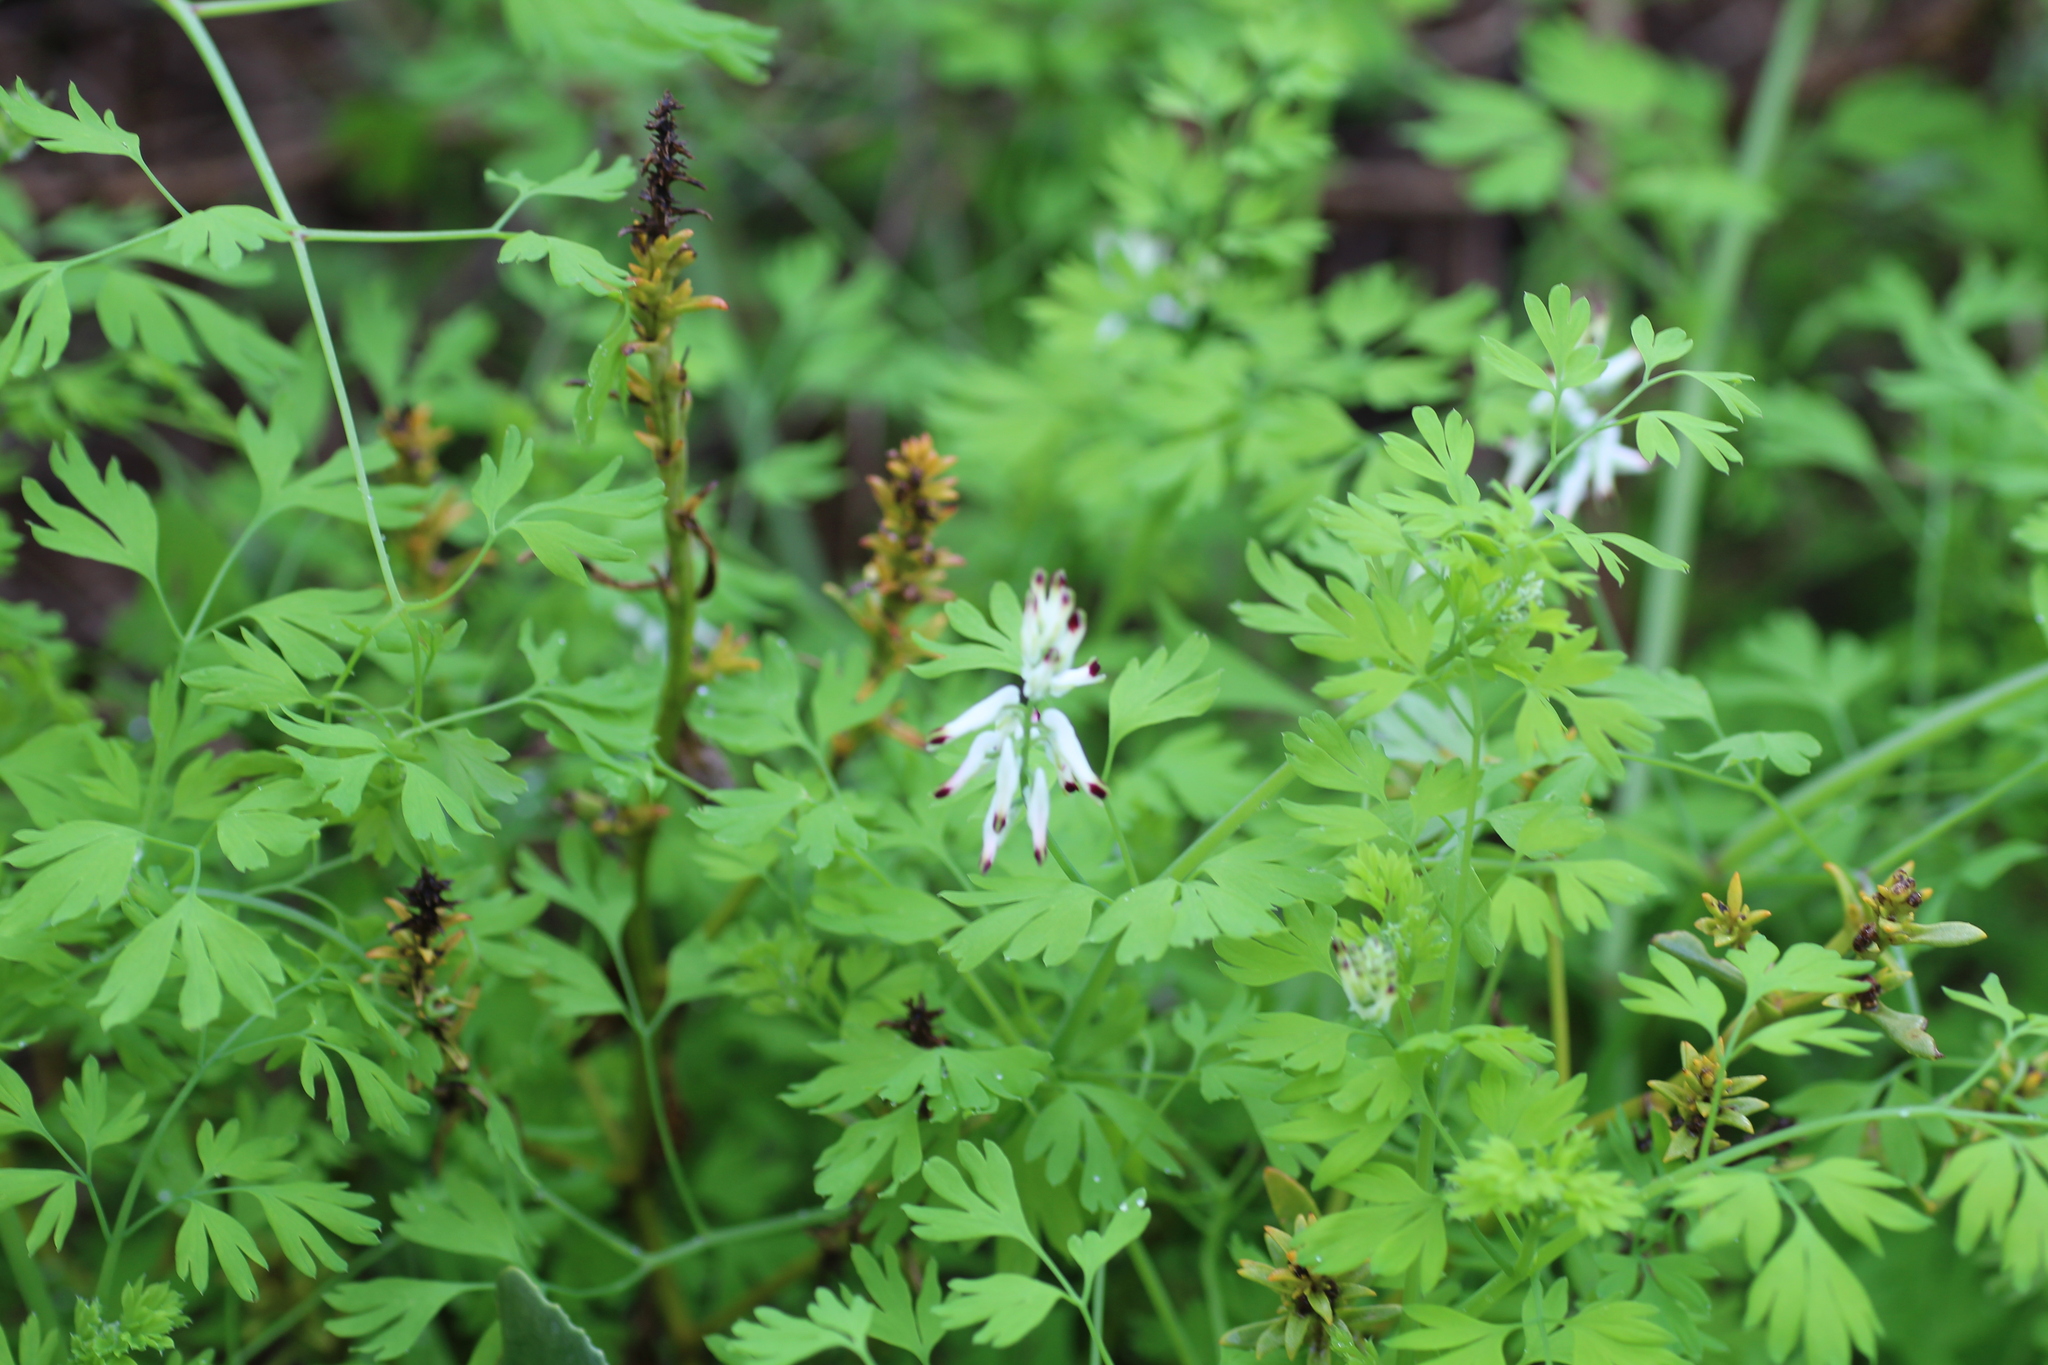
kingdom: Plantae
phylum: Tracheophyta
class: Magnoliopsida
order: Ranunculales
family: Papaveraceae
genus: Fumaria
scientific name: Fumaria capreolata
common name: White ramping-fumitory
